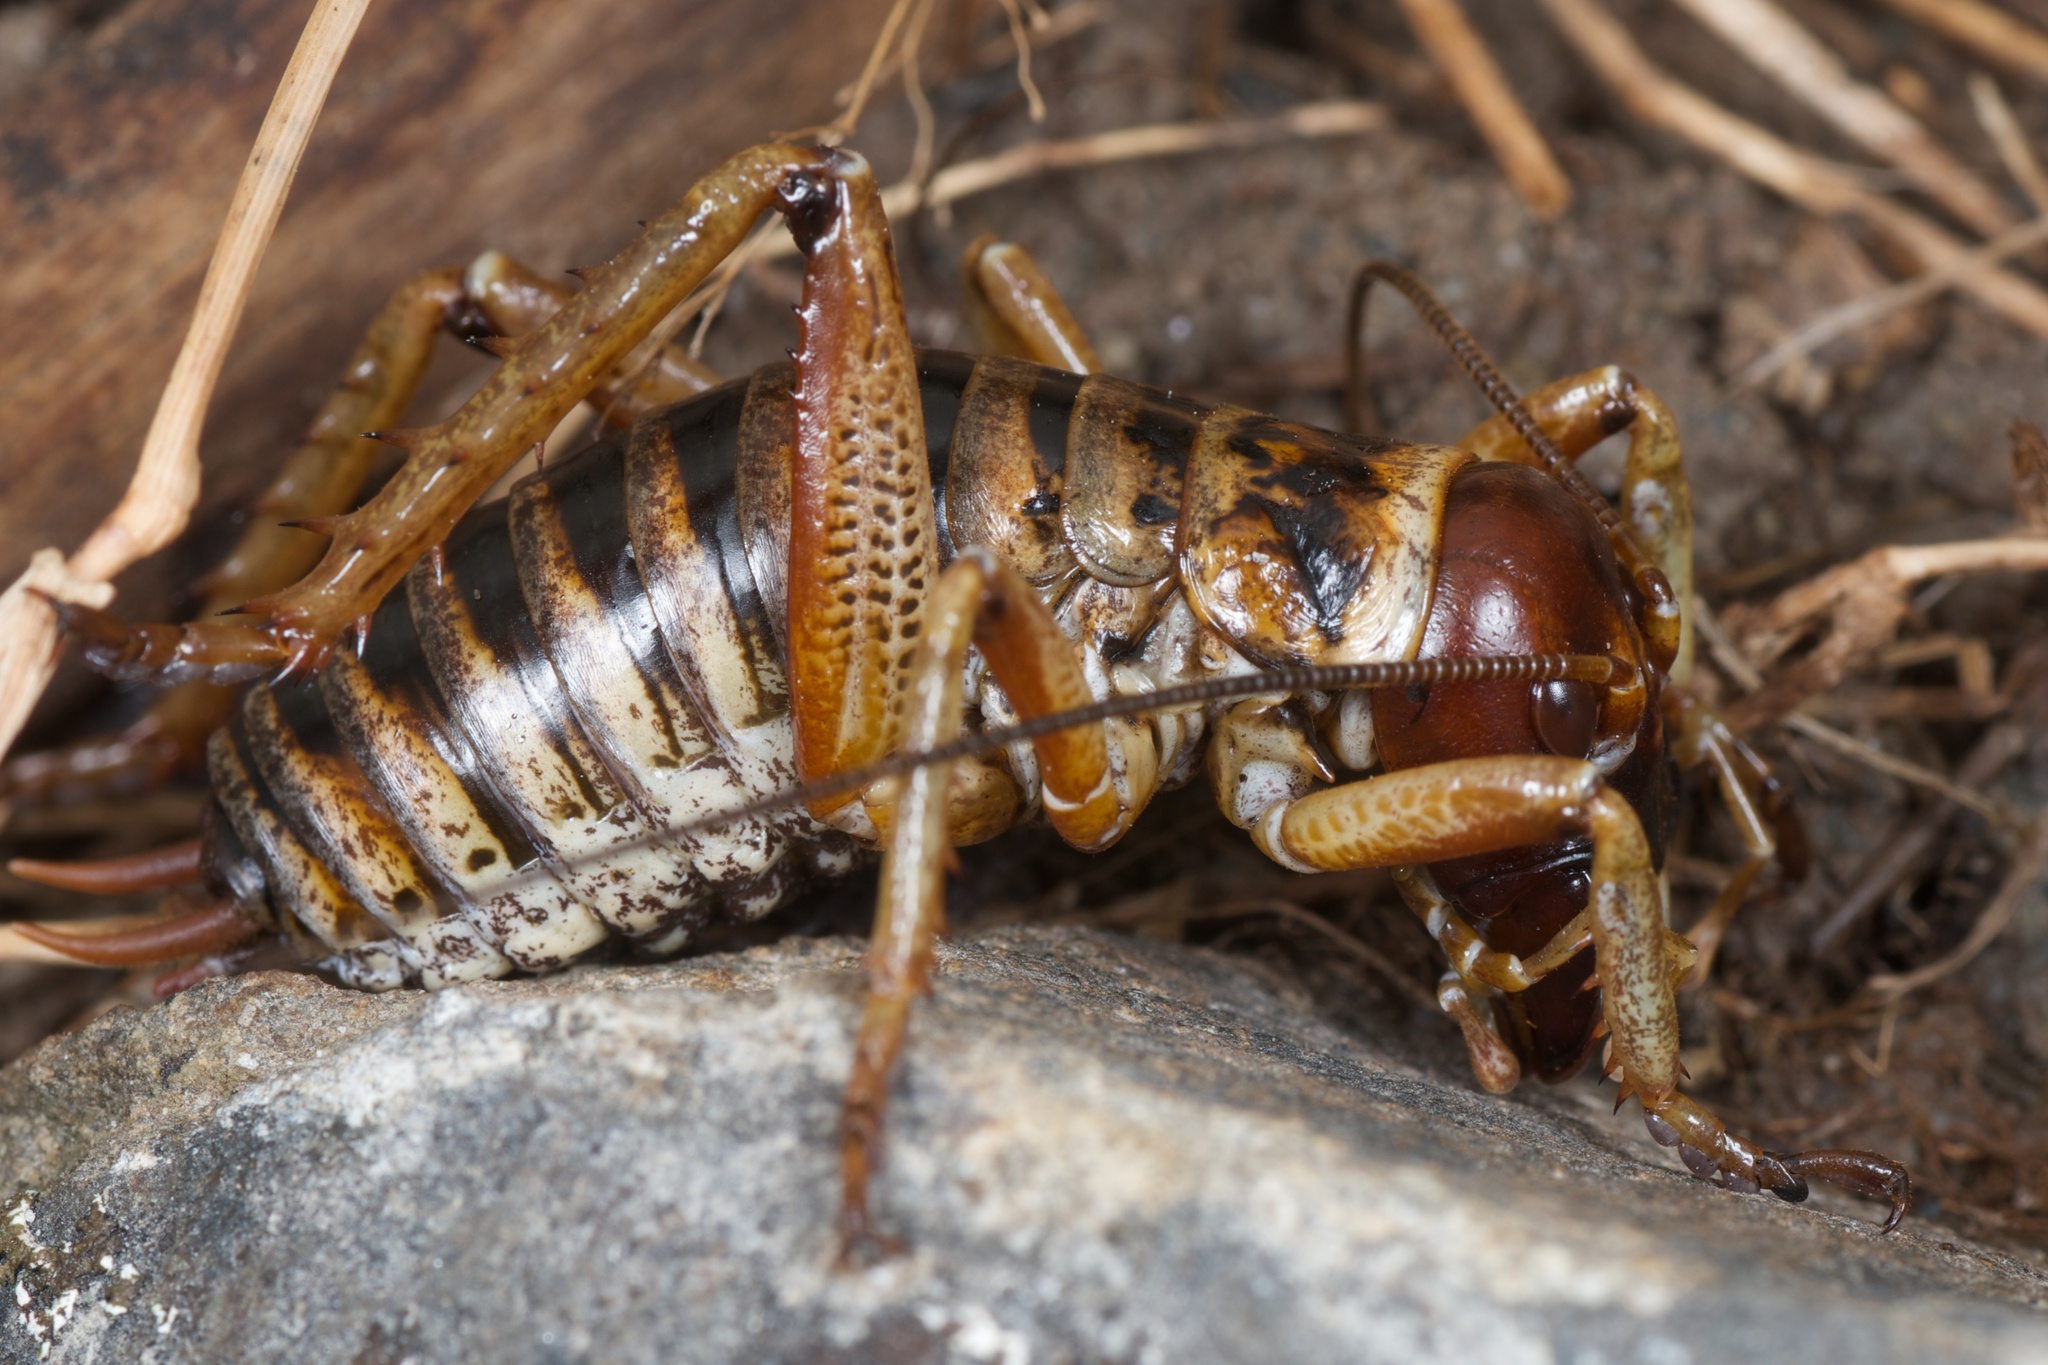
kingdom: Animalia
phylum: Arthropoda
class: Insecta
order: Orthoptera
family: Anostostomatidae
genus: Hemideina
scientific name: Hemideina maori
